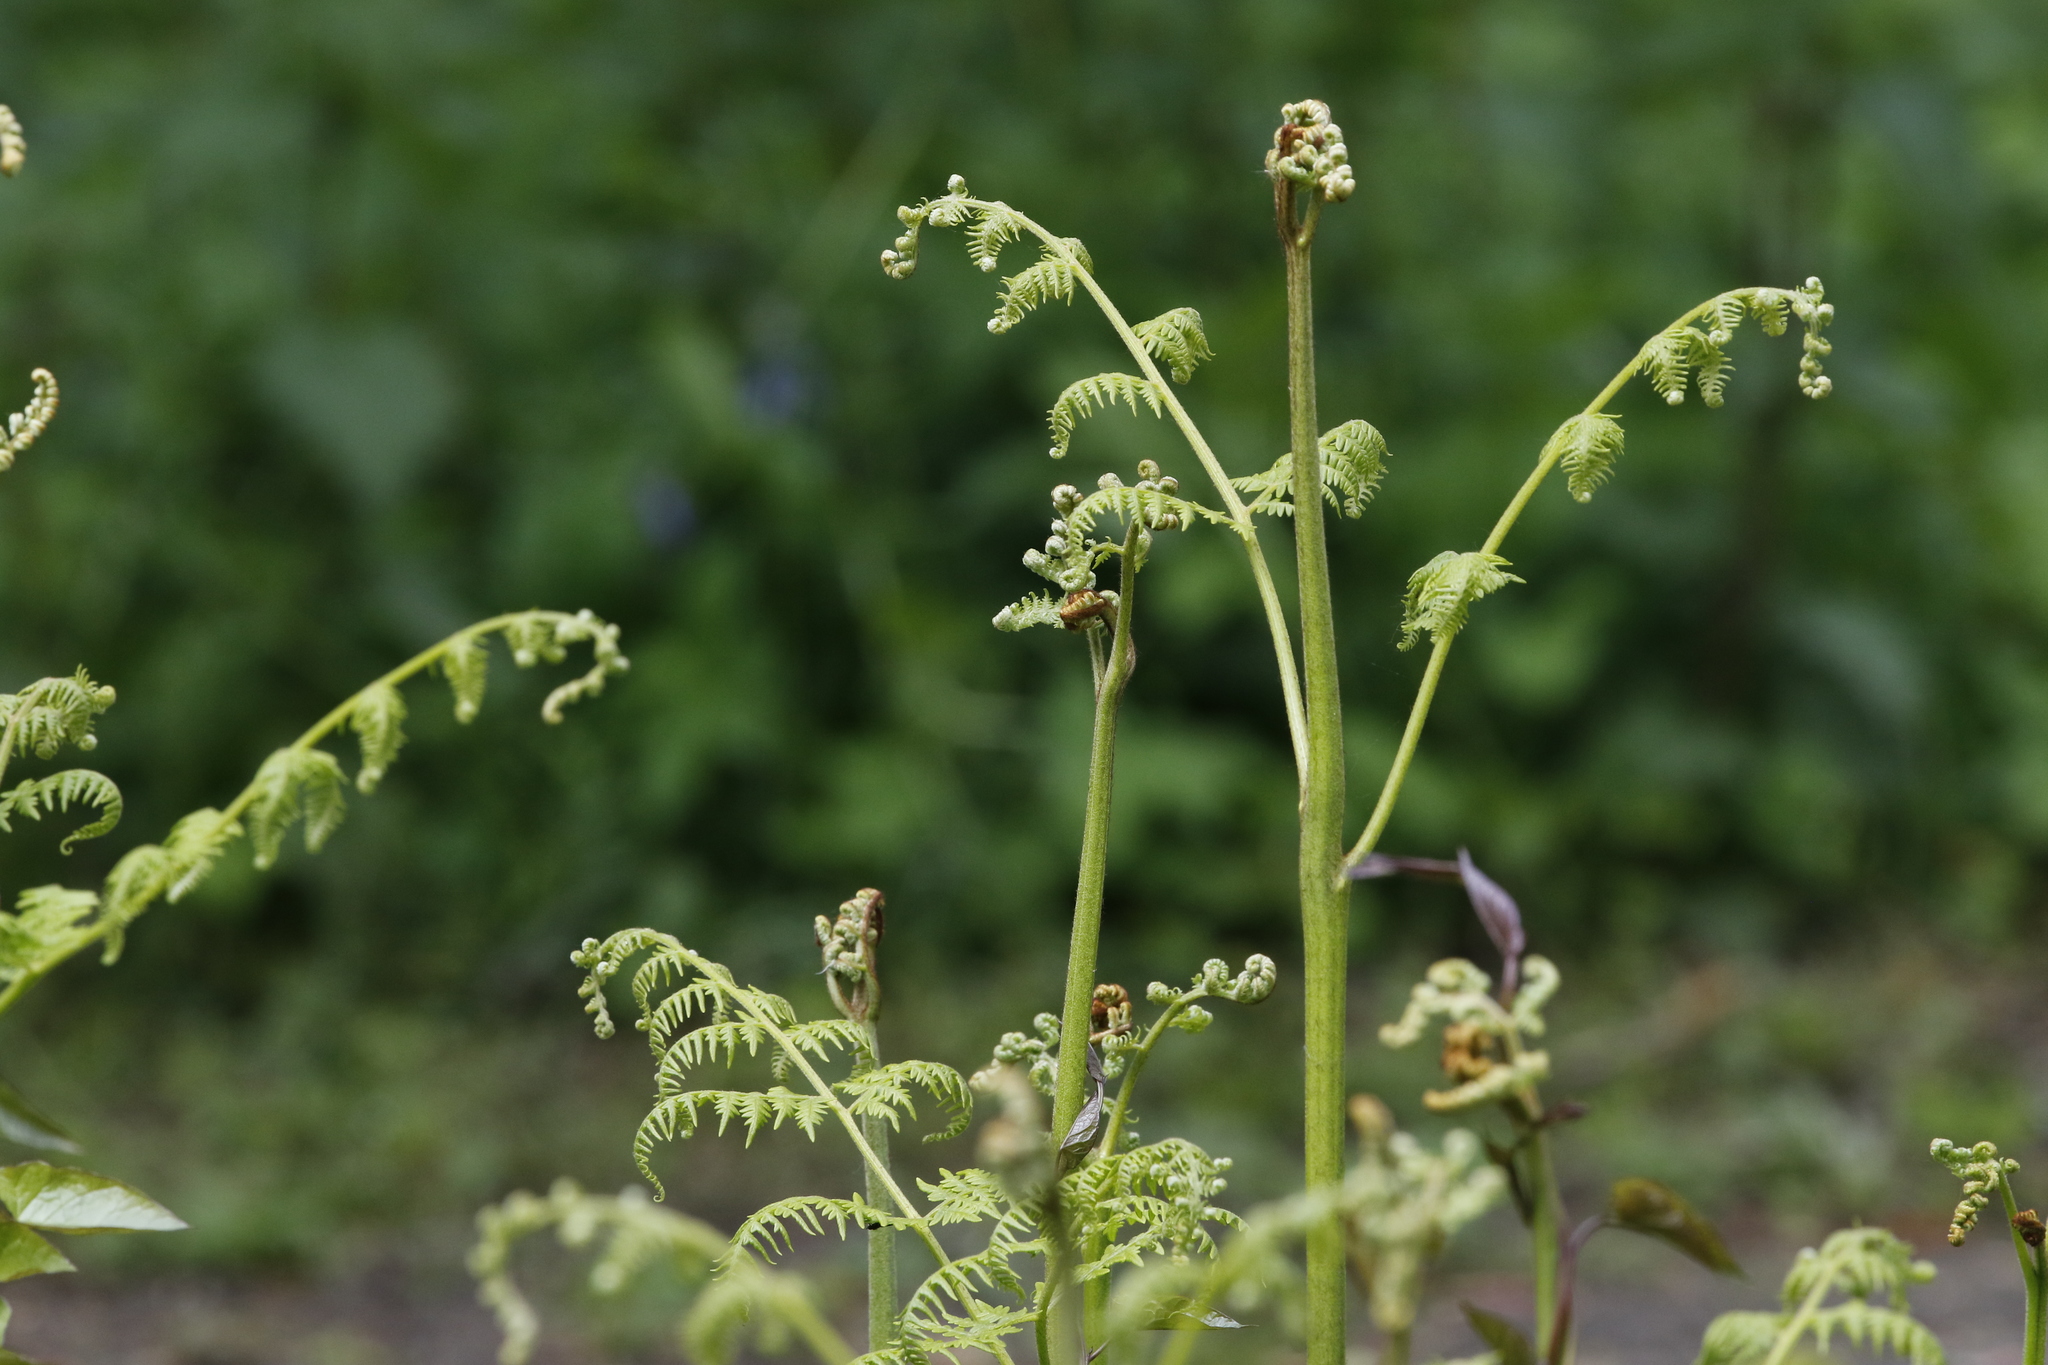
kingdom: Plantae
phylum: Tracheophyta
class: Polypodiopsida
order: Polypodiales
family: Dennstaedtiaceae
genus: Pteridium
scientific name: Pteridium aquilinum
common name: Bracken
